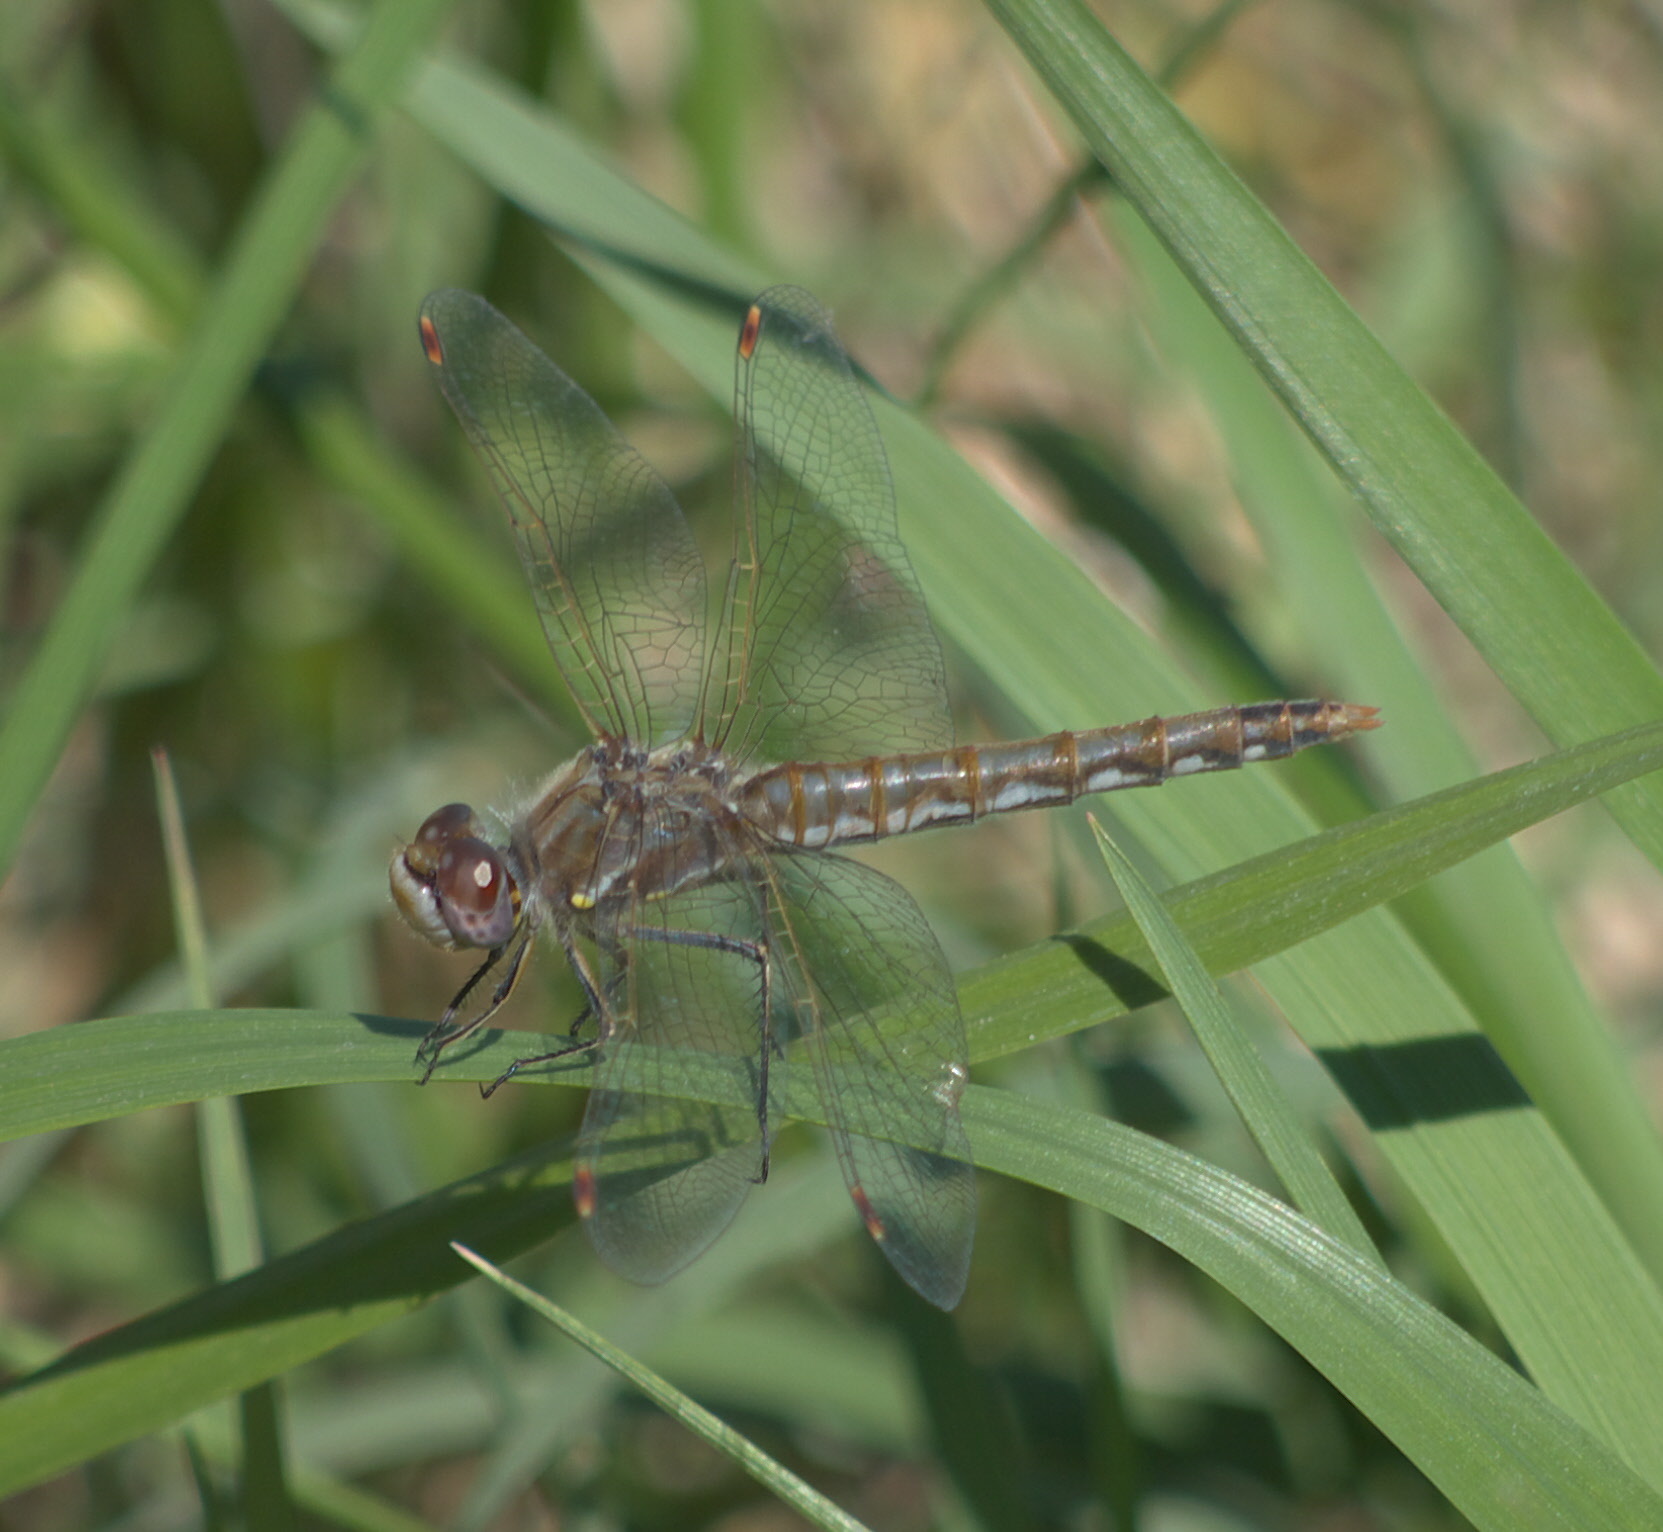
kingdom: Animalia
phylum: Arthropoda
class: Insecta
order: Odonata
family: Libellulidae
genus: Sympetrum
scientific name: Sympetrum corruptum
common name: Variegated meadowhawk
